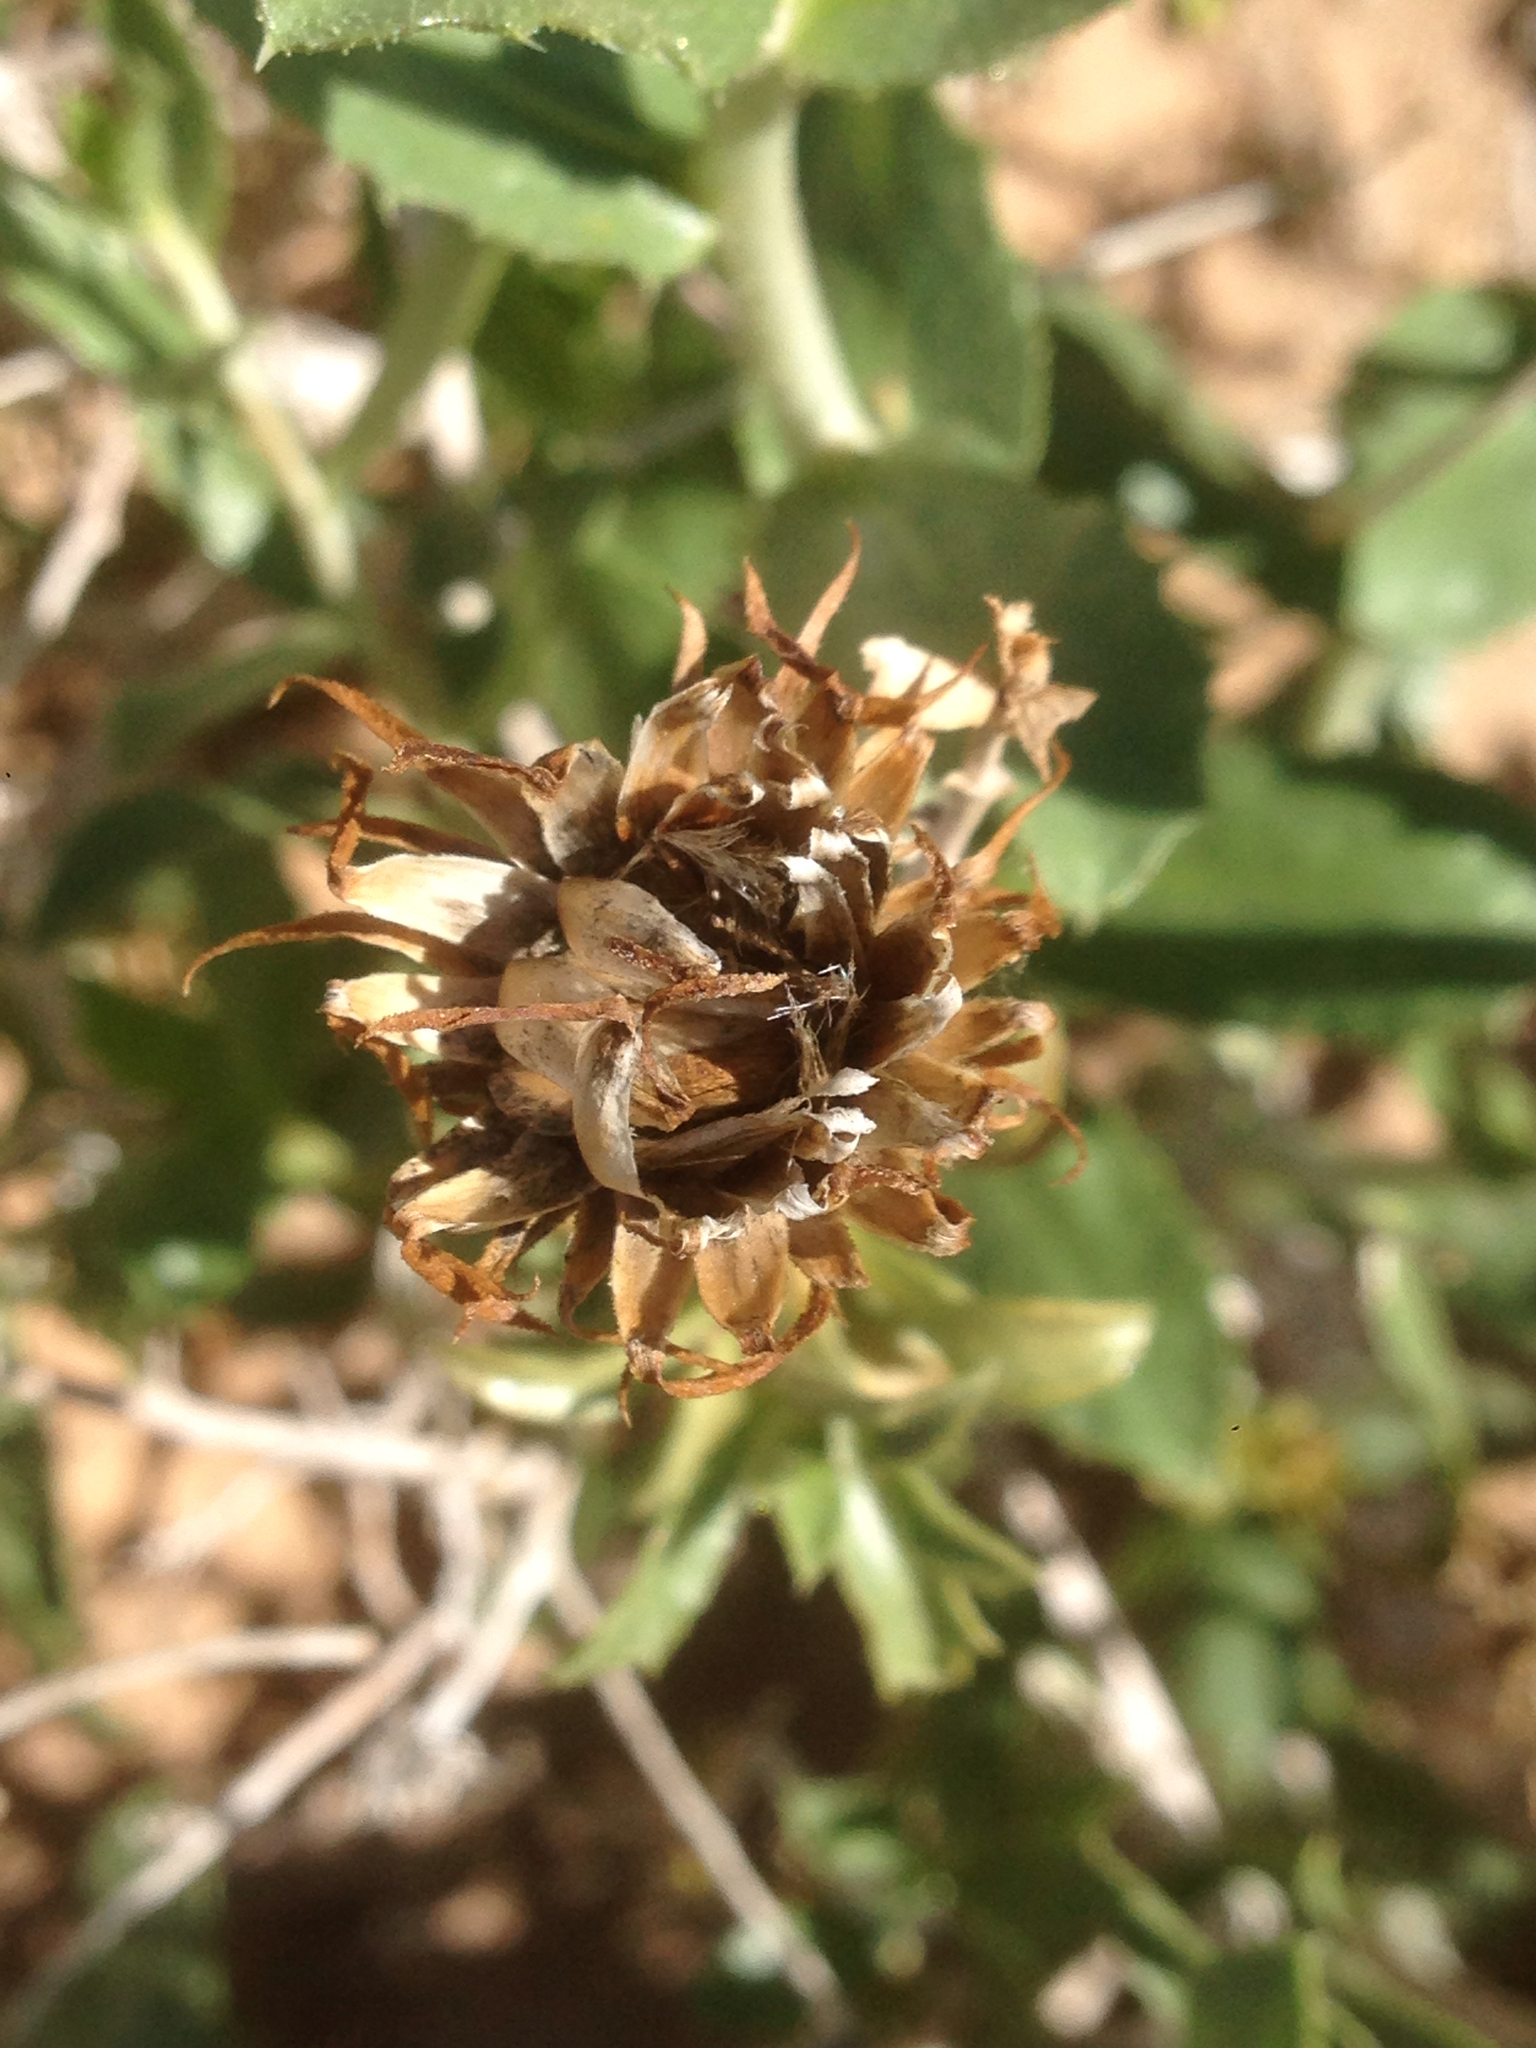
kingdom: Plantae
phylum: Tracheophyta
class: Magnoliopsida
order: Asterales
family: Asteraceae
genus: Xylorhiza
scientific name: Xylorhiza cognata
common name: Mecca woody-aster
